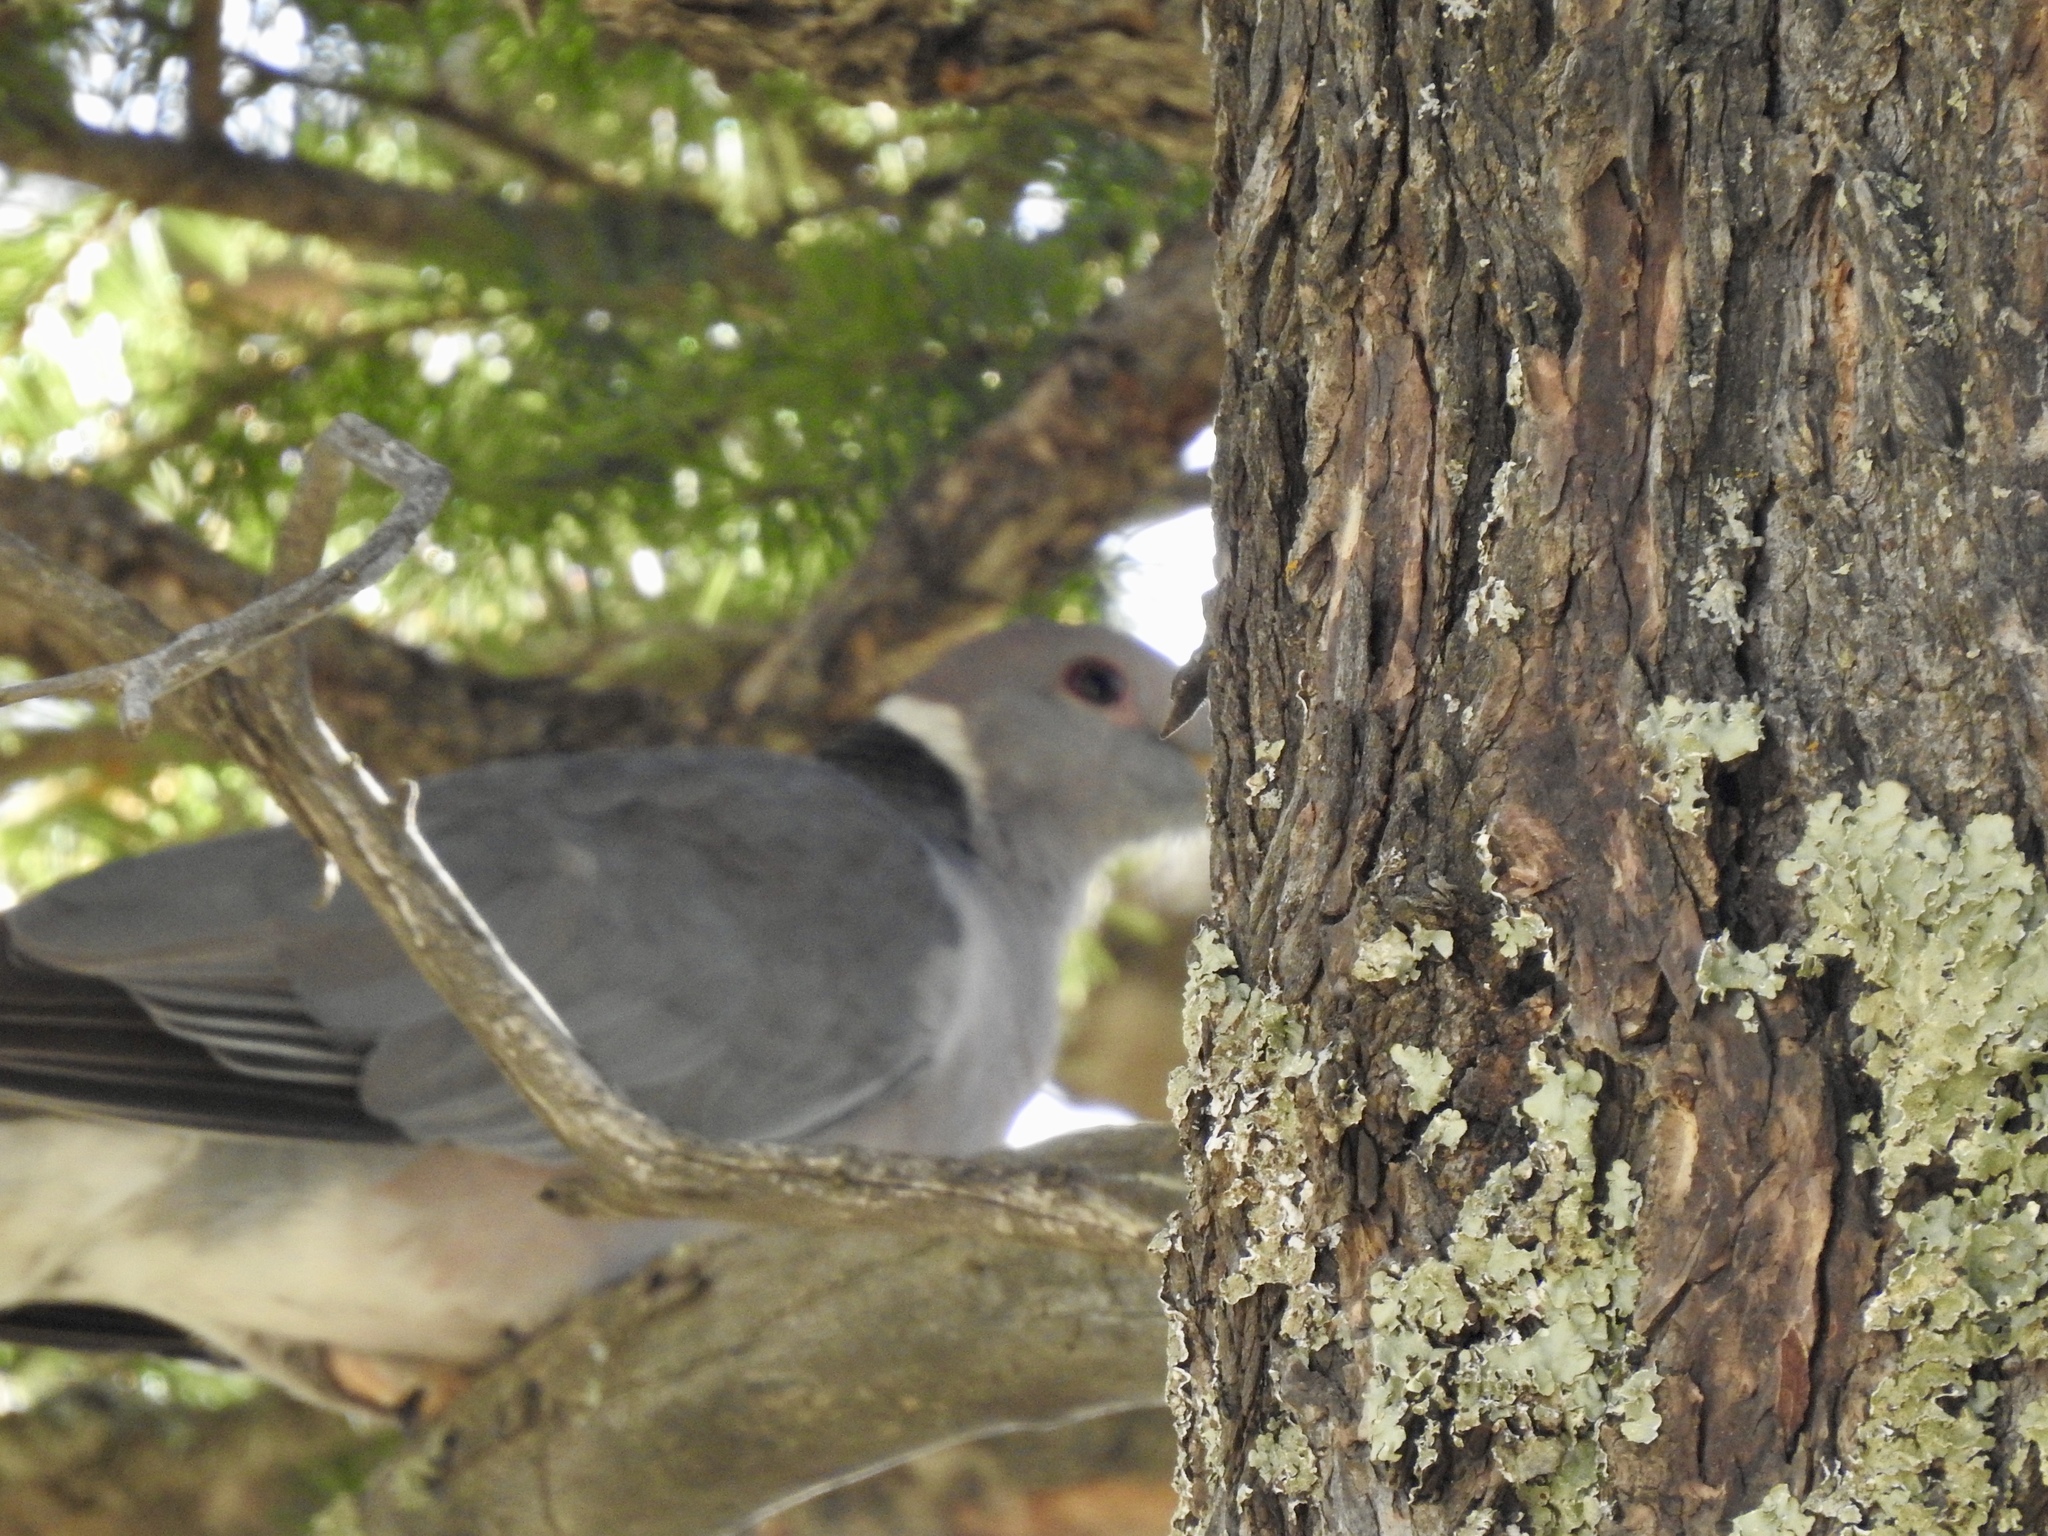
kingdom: Animalia
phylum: Chordata
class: Aves
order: Columbiformes
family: Columbidae
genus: Patagioenas
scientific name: Patagioenas fasciata
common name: Band-tailed pigeon
